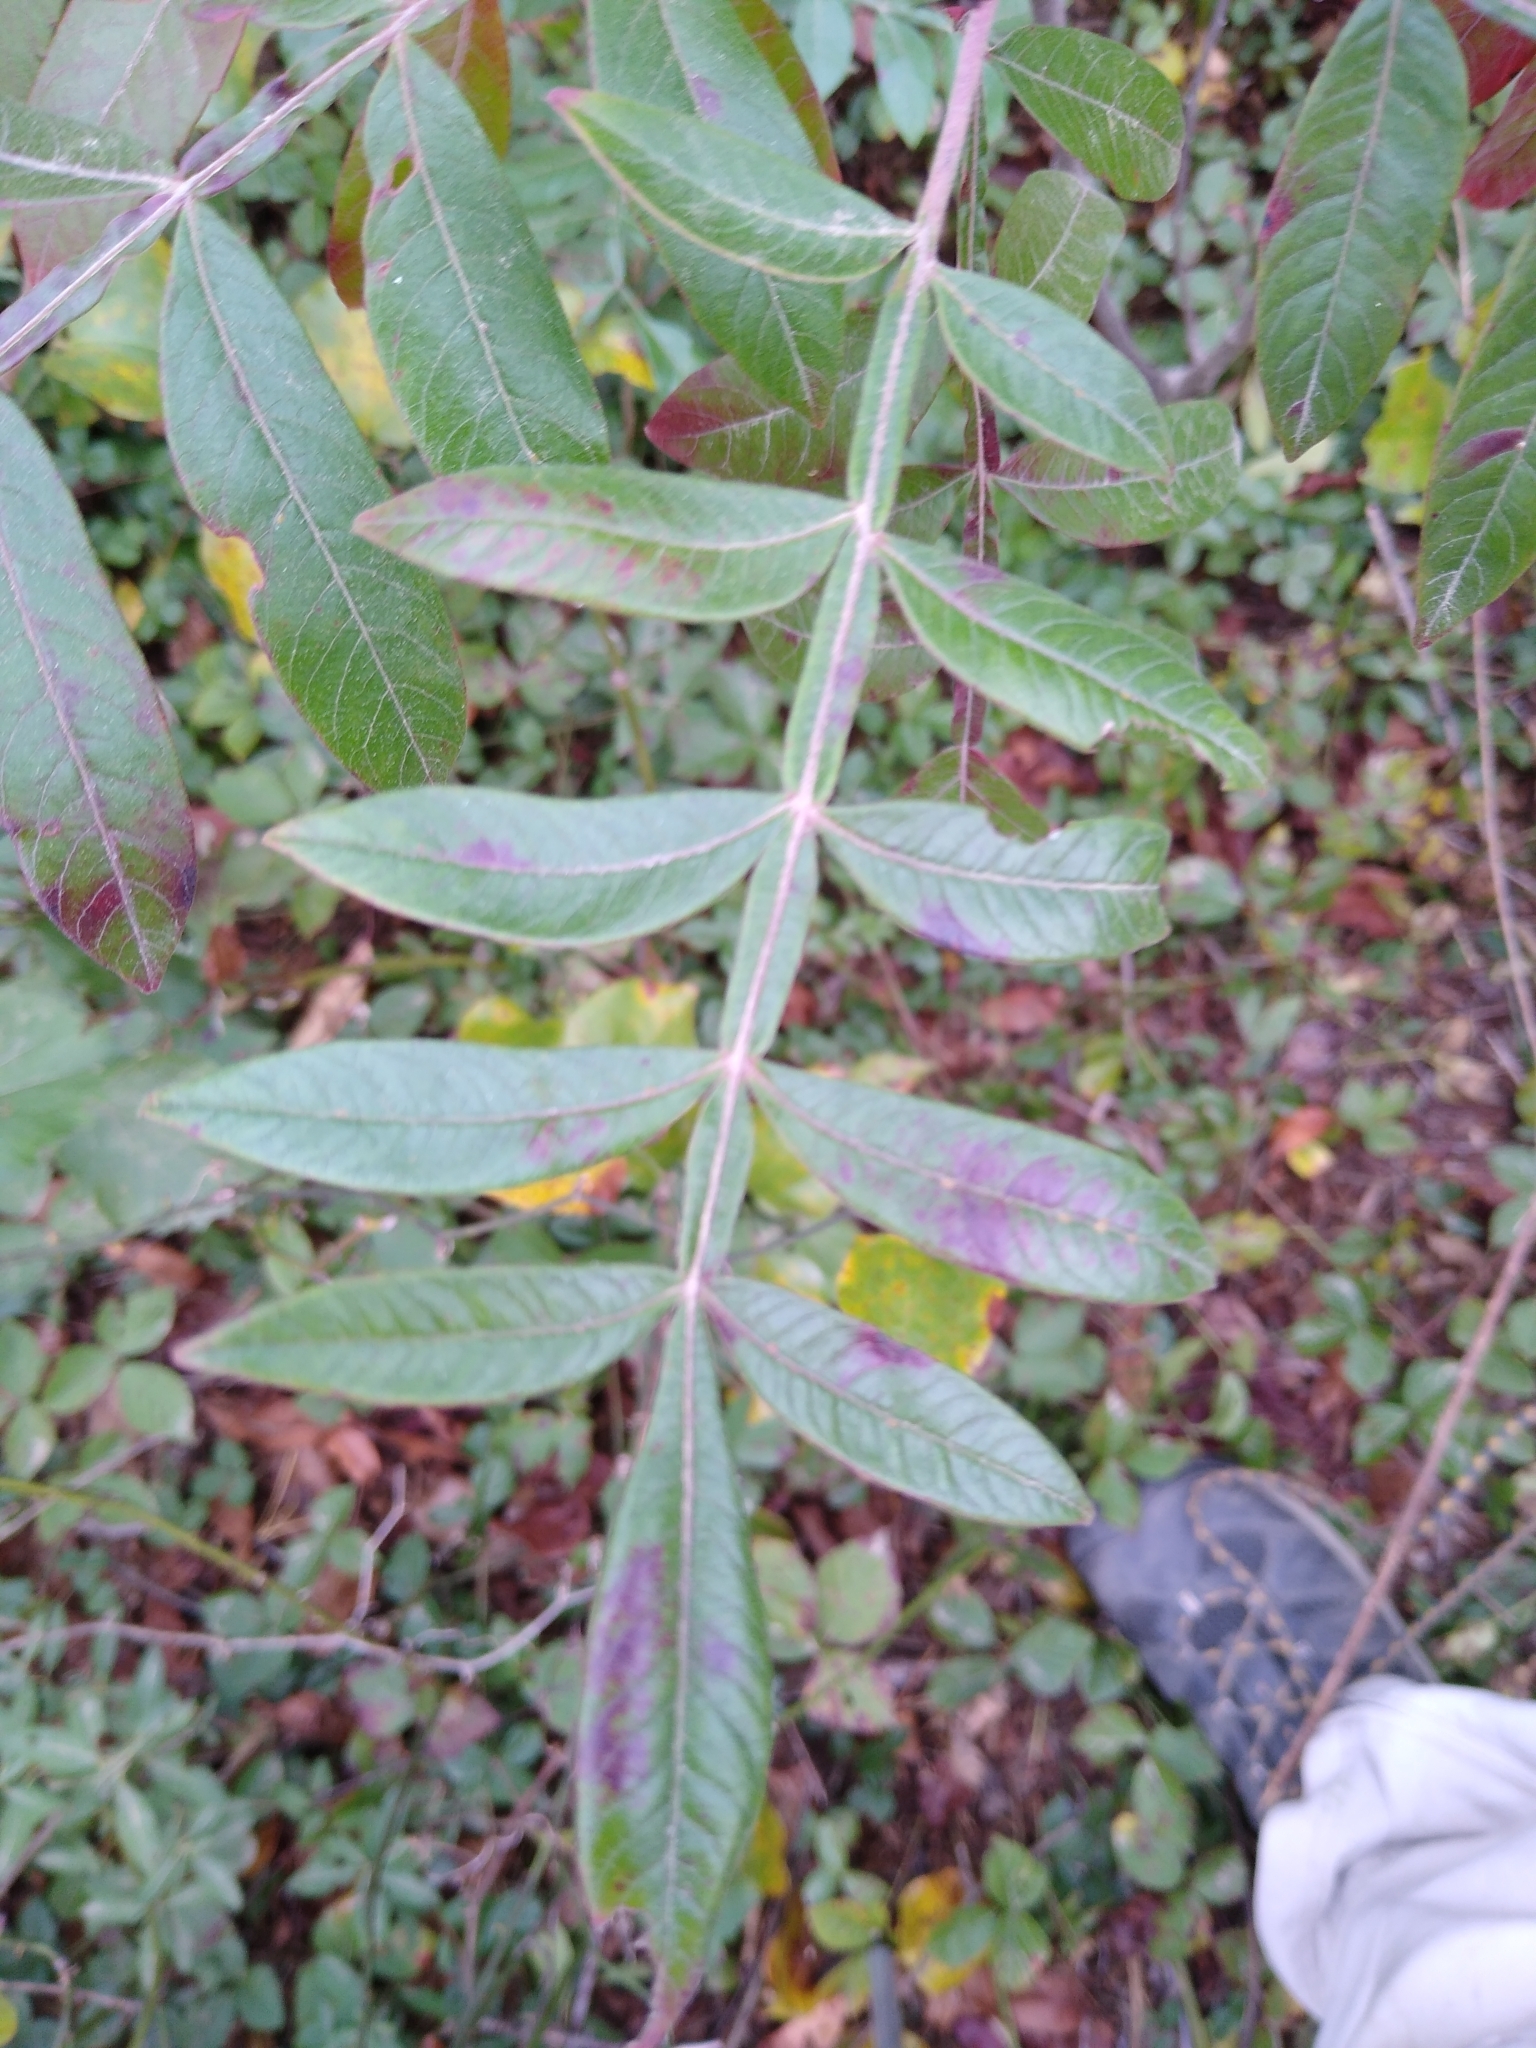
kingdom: Plantae
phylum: Tracheophyta
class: Magnoliopsida
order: Sapindales
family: Anacardiaceae
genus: Rhus
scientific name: Rhus copallina
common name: Shining sumac
